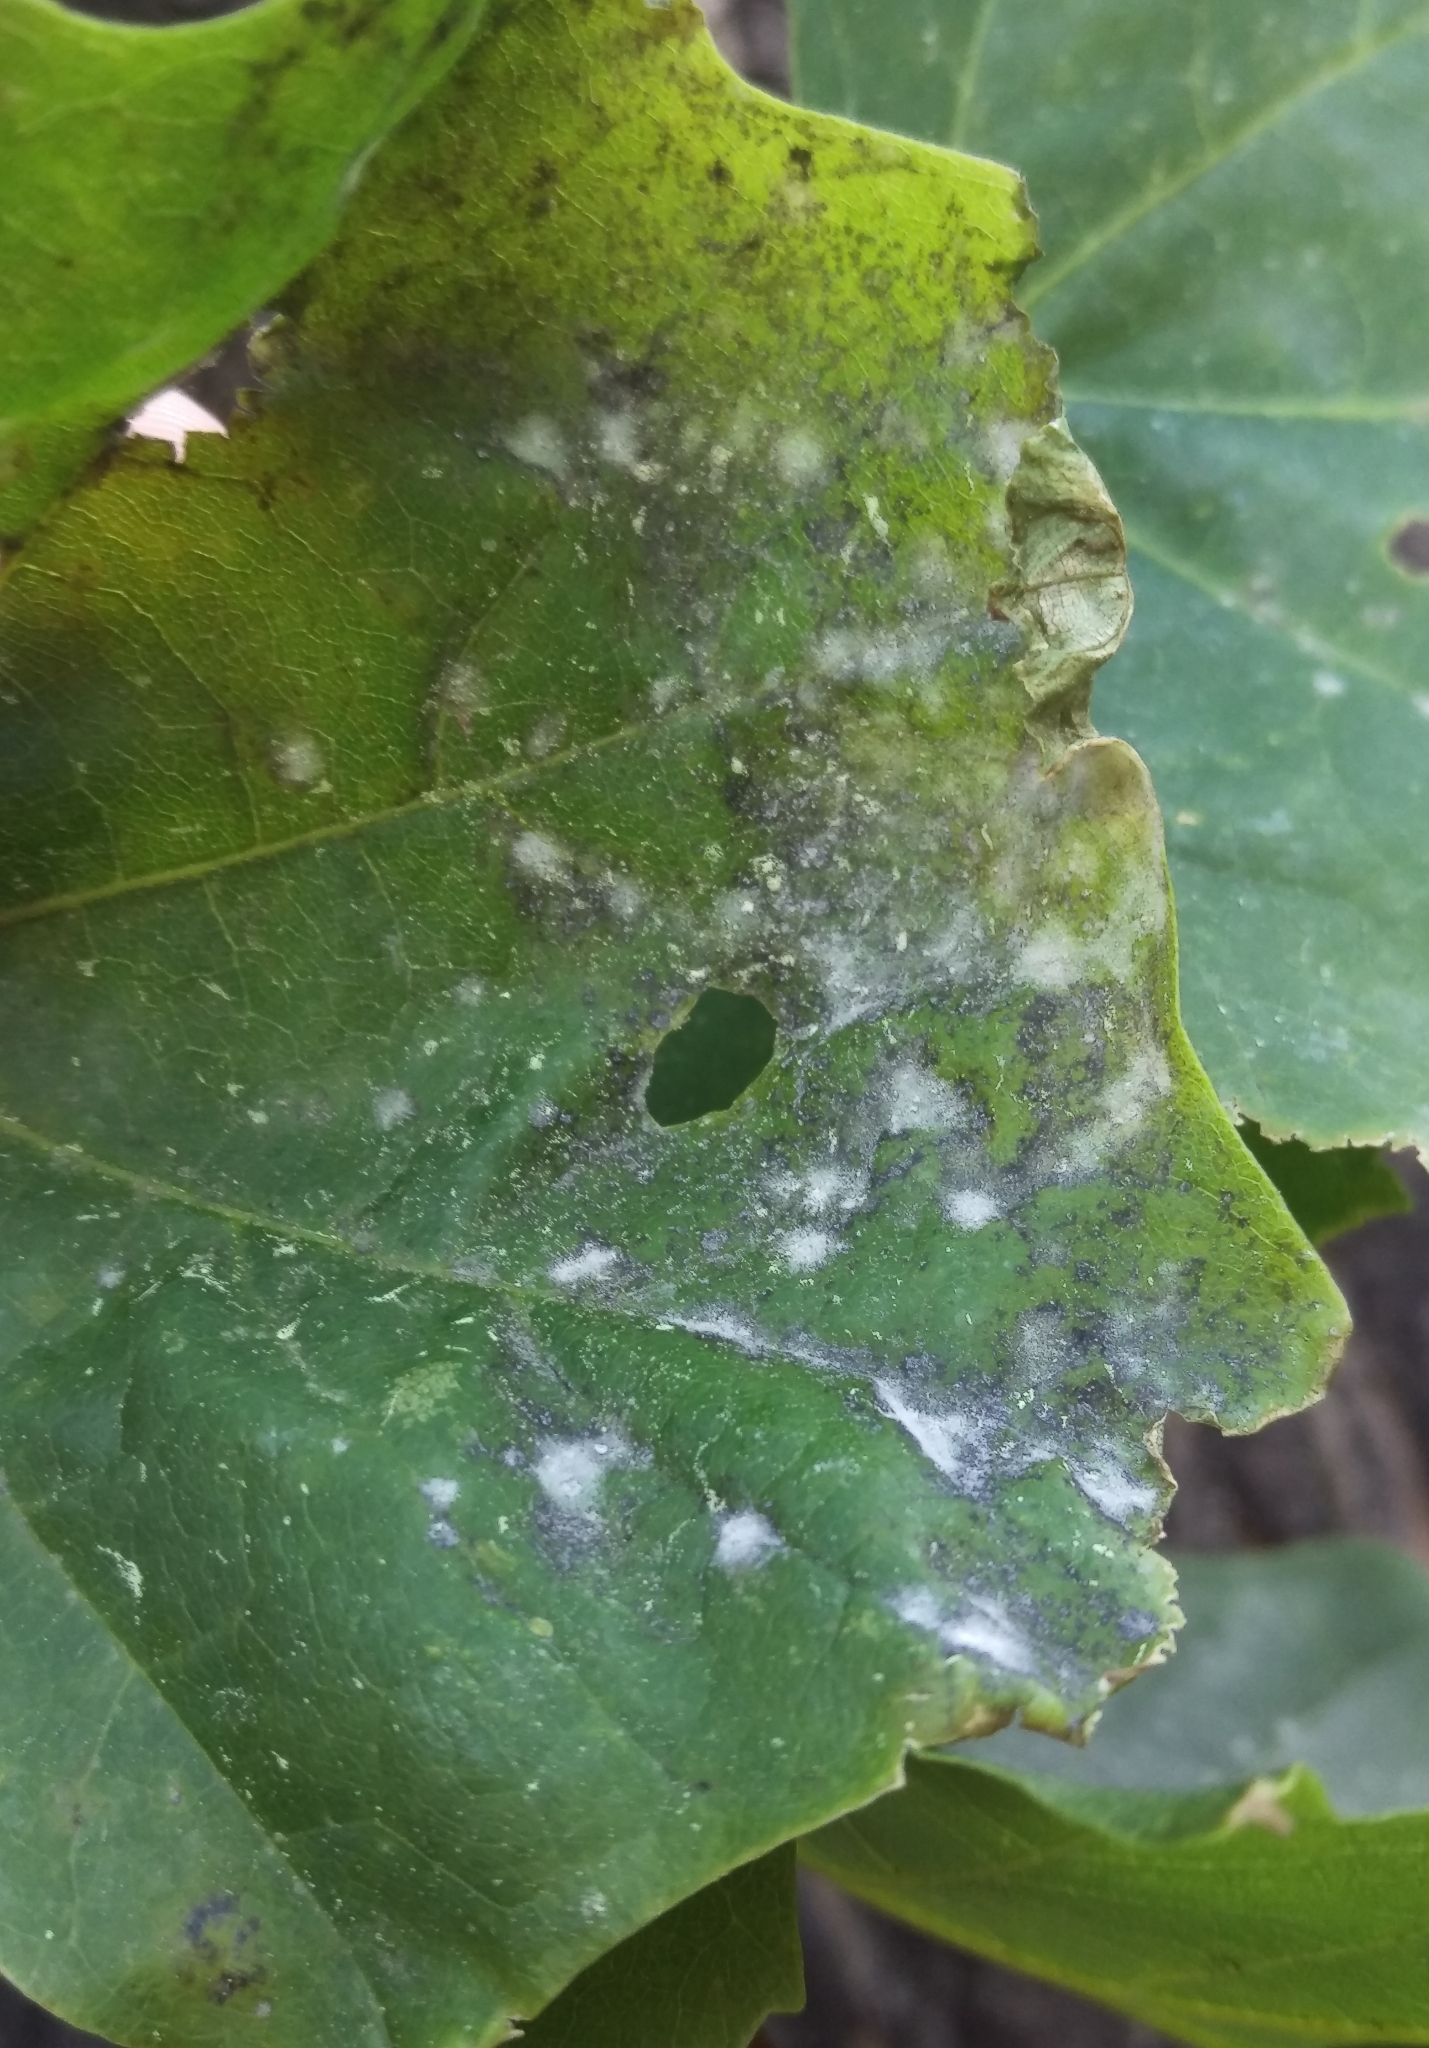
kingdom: Fungi
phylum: Ascomycota
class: Leotiomycetes
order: Helotiales
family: Erysiphaceae
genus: Sawadaea
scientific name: Sawadaea tulasnei
